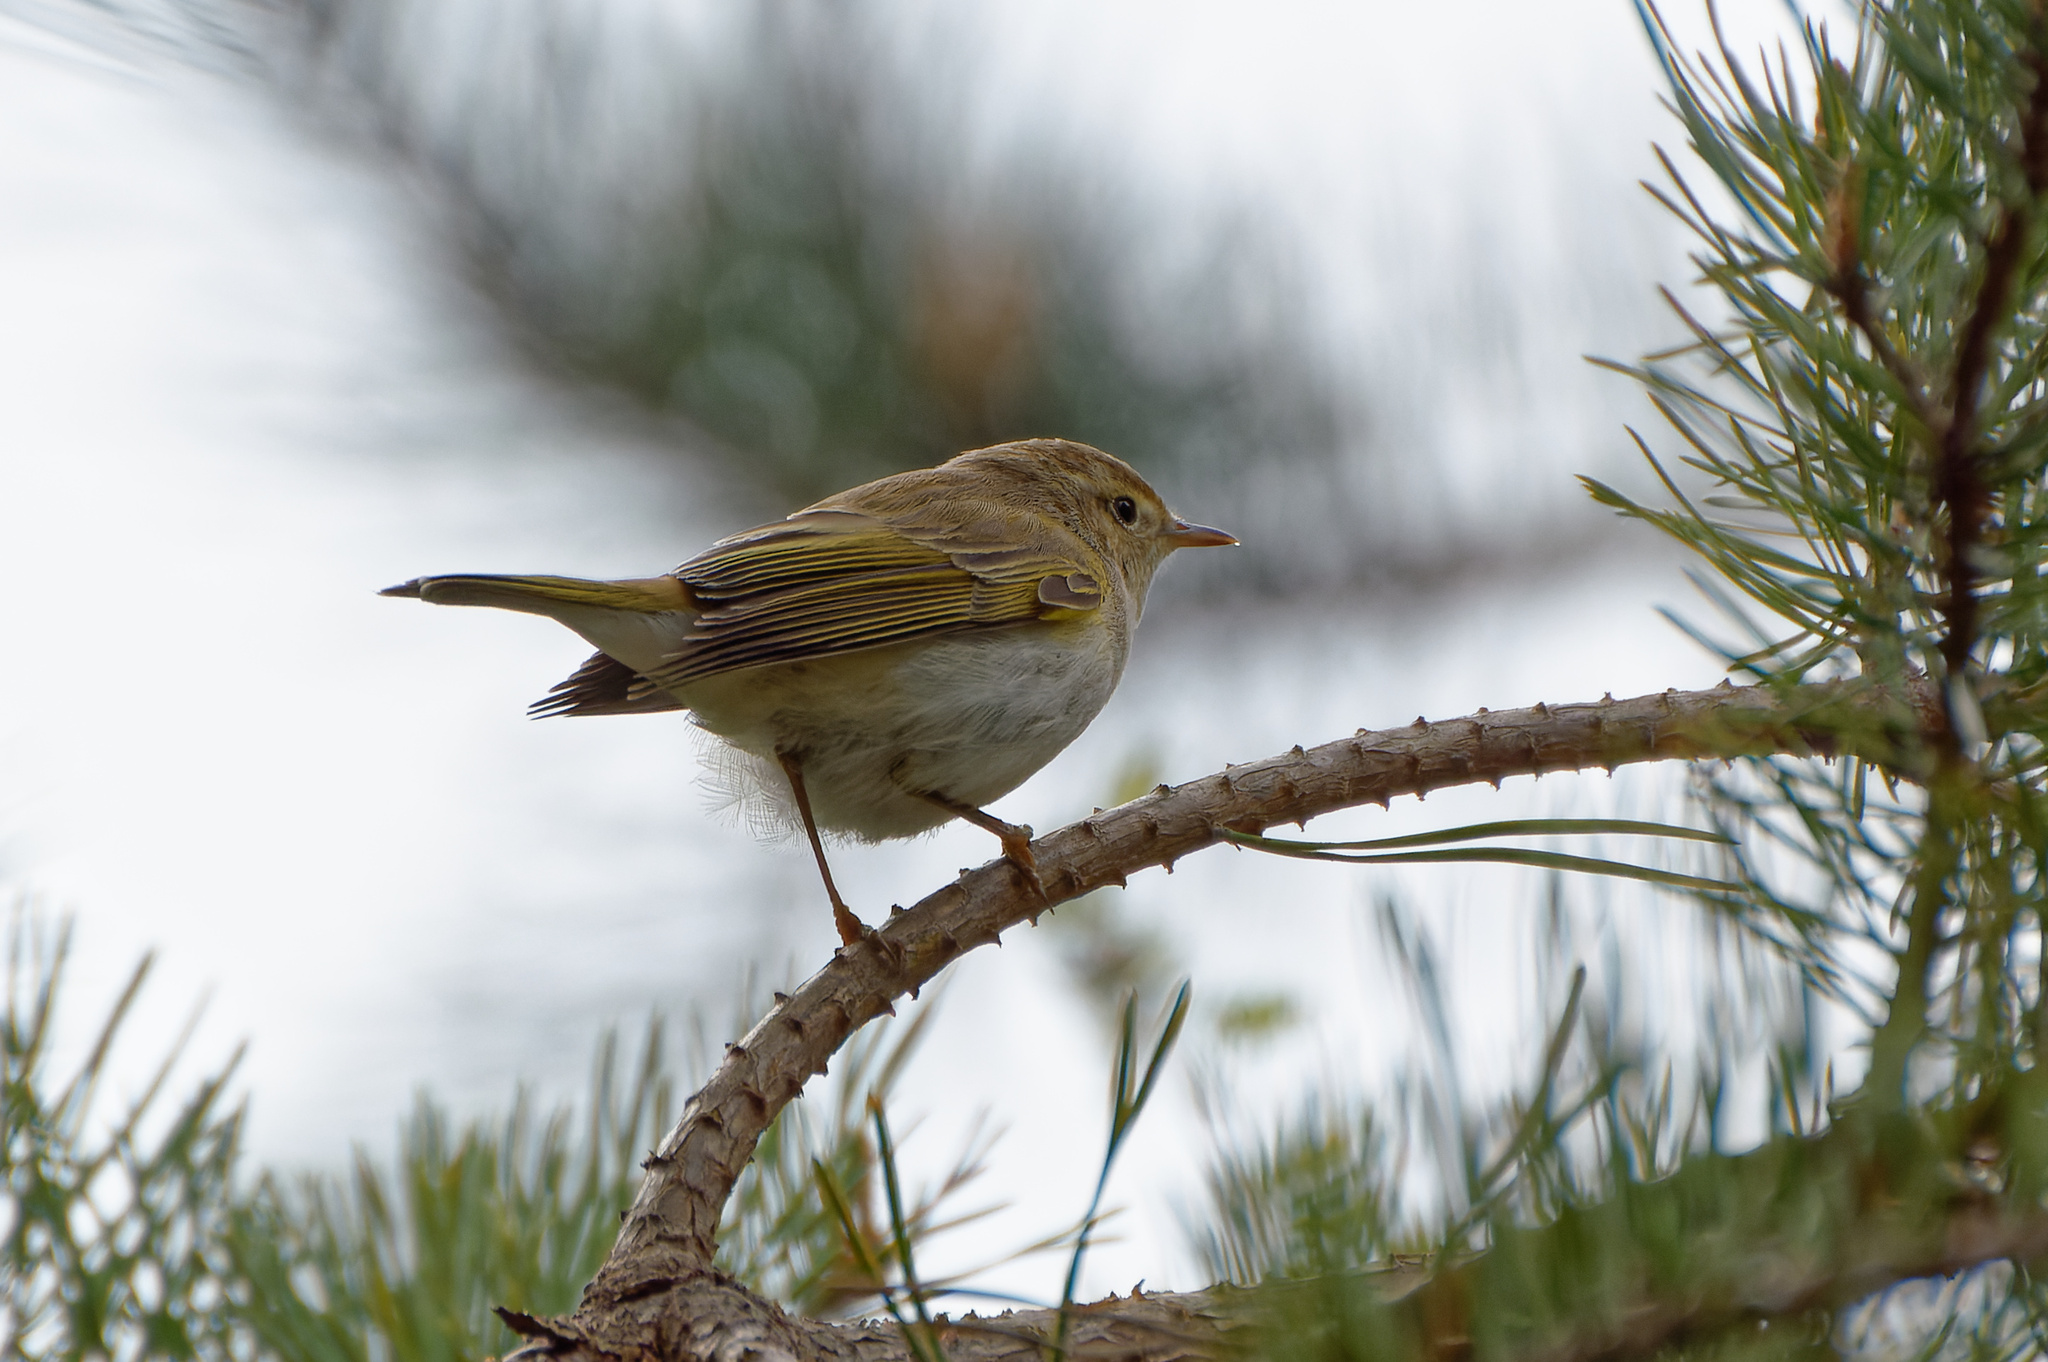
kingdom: Animalia
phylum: Chordata
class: Aves
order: Passeriformes
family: Phylloscopidae
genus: Phylloscopus
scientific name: Phylloscopus bonelli
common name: Western bonelli's warbler
